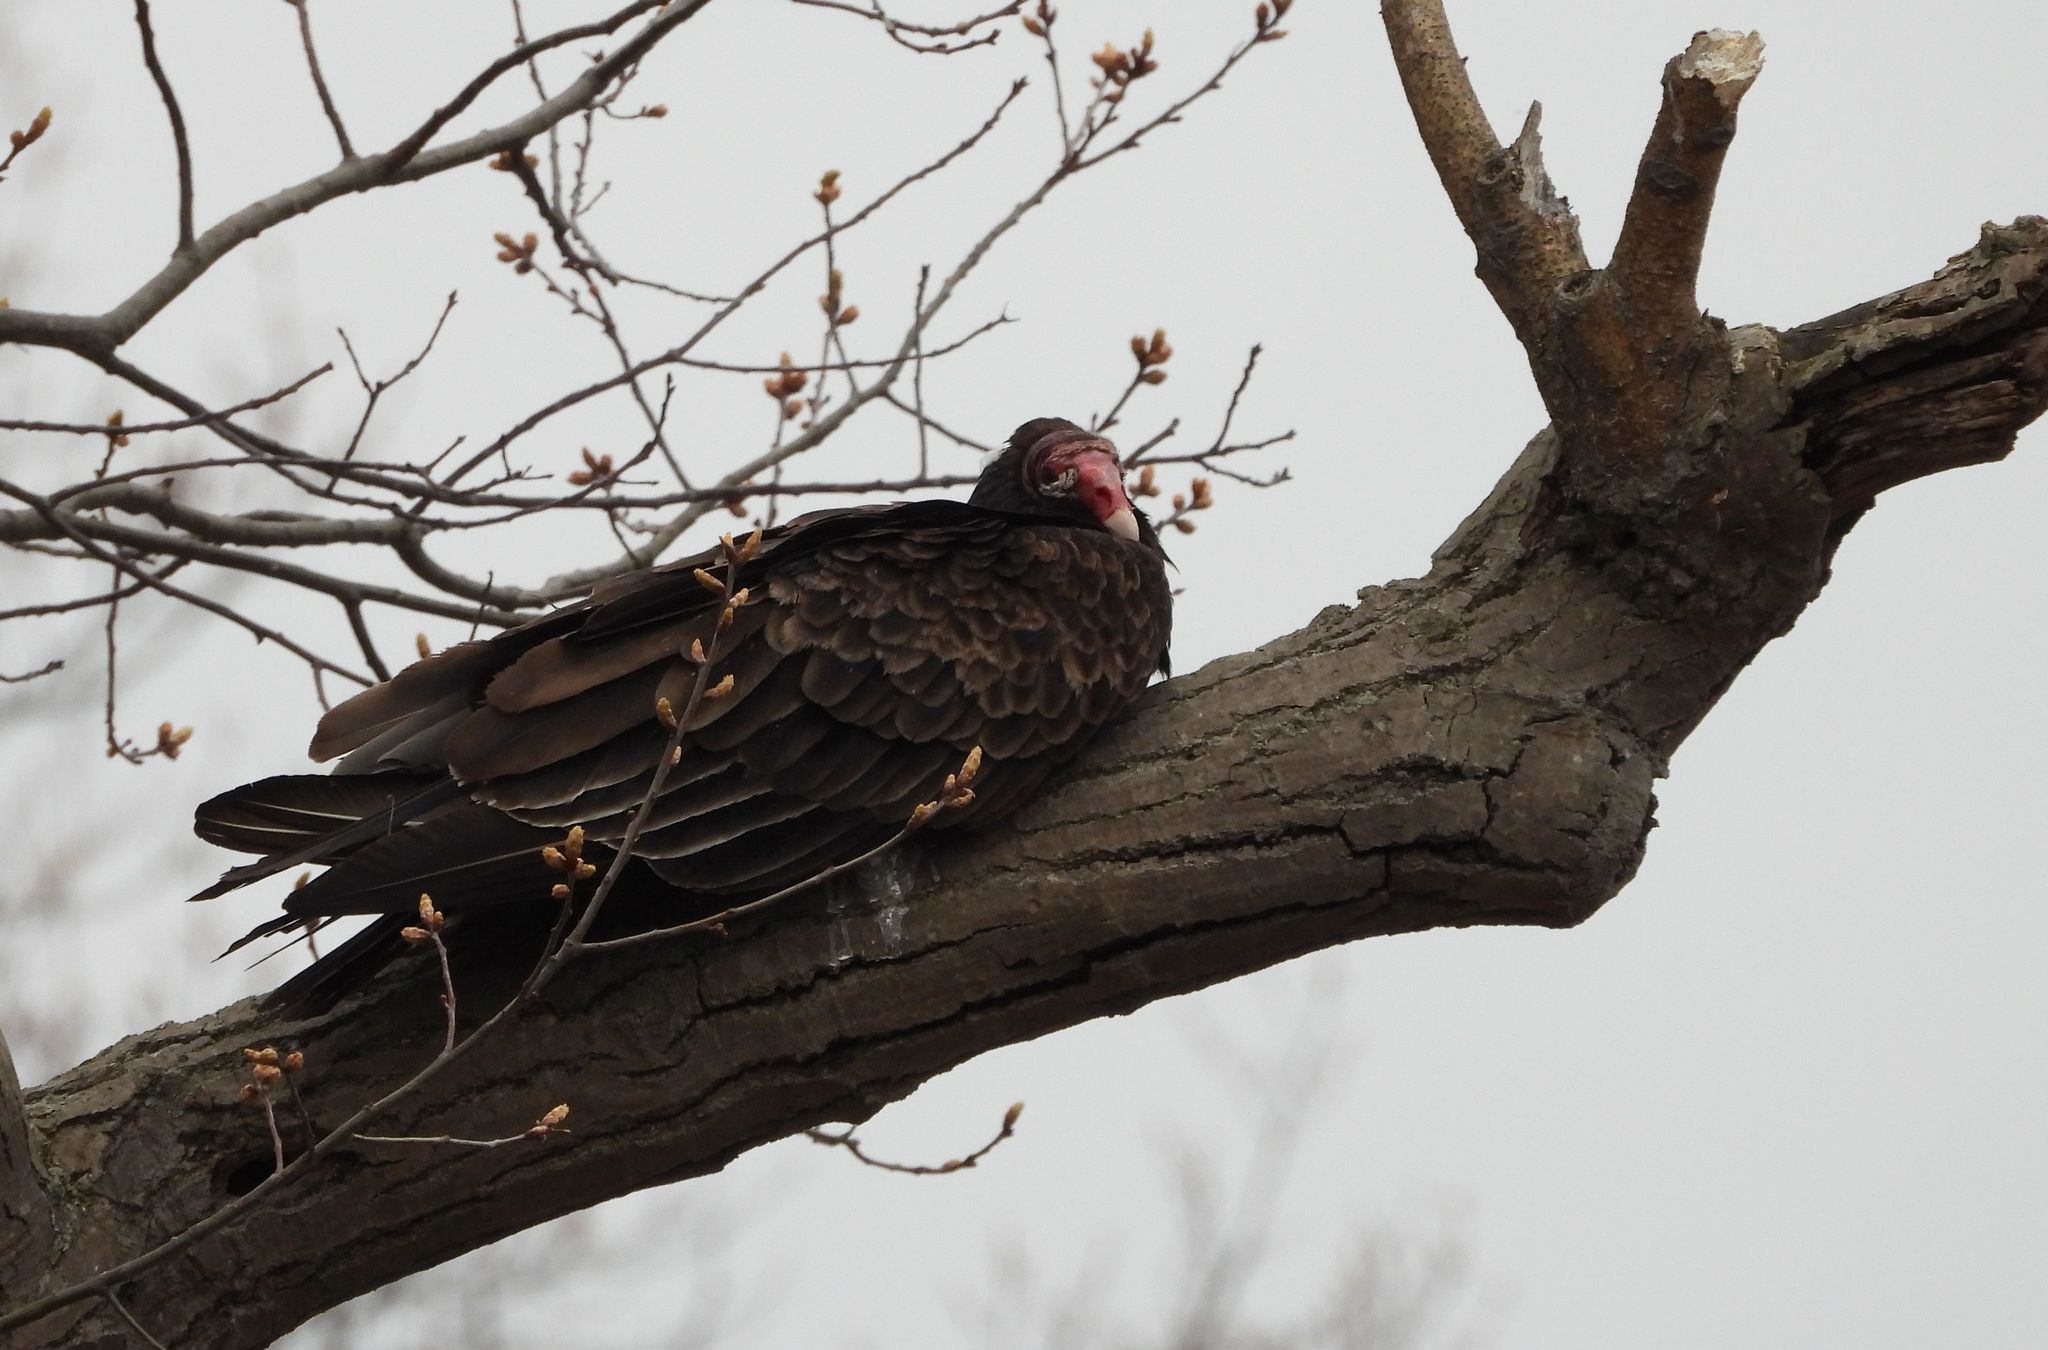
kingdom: Animalia
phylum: Chordata
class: Aves
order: Accipitriformes
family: Cathartidae
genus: Cathartes
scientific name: Cathartes aura
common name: Turkey vulture
